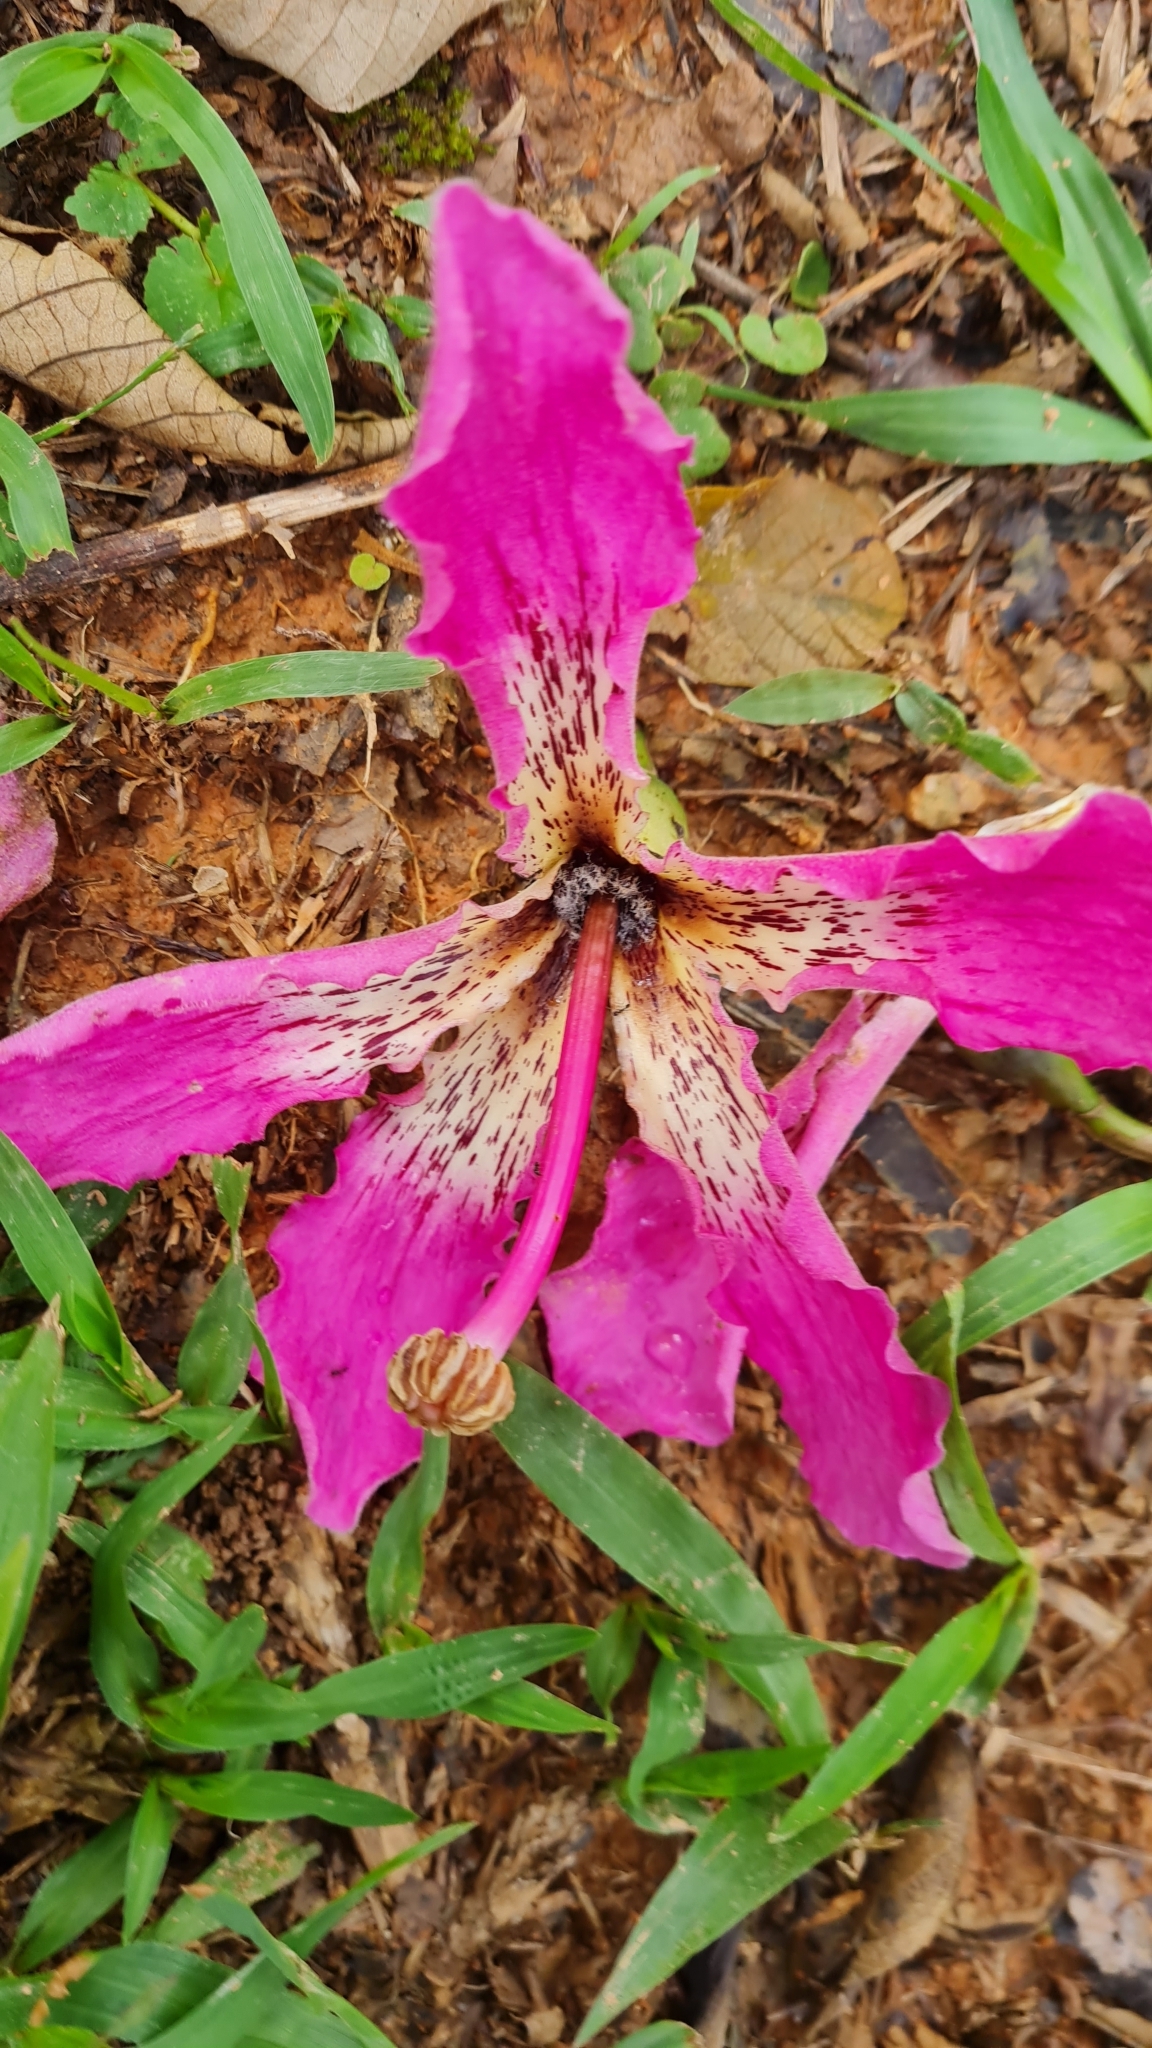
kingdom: Plantae
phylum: Tracheophyta
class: Magnoliopsida
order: Malvales
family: Malvaceae
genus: Ceiba
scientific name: Ceiba speciosa
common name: Silk-floss tree
